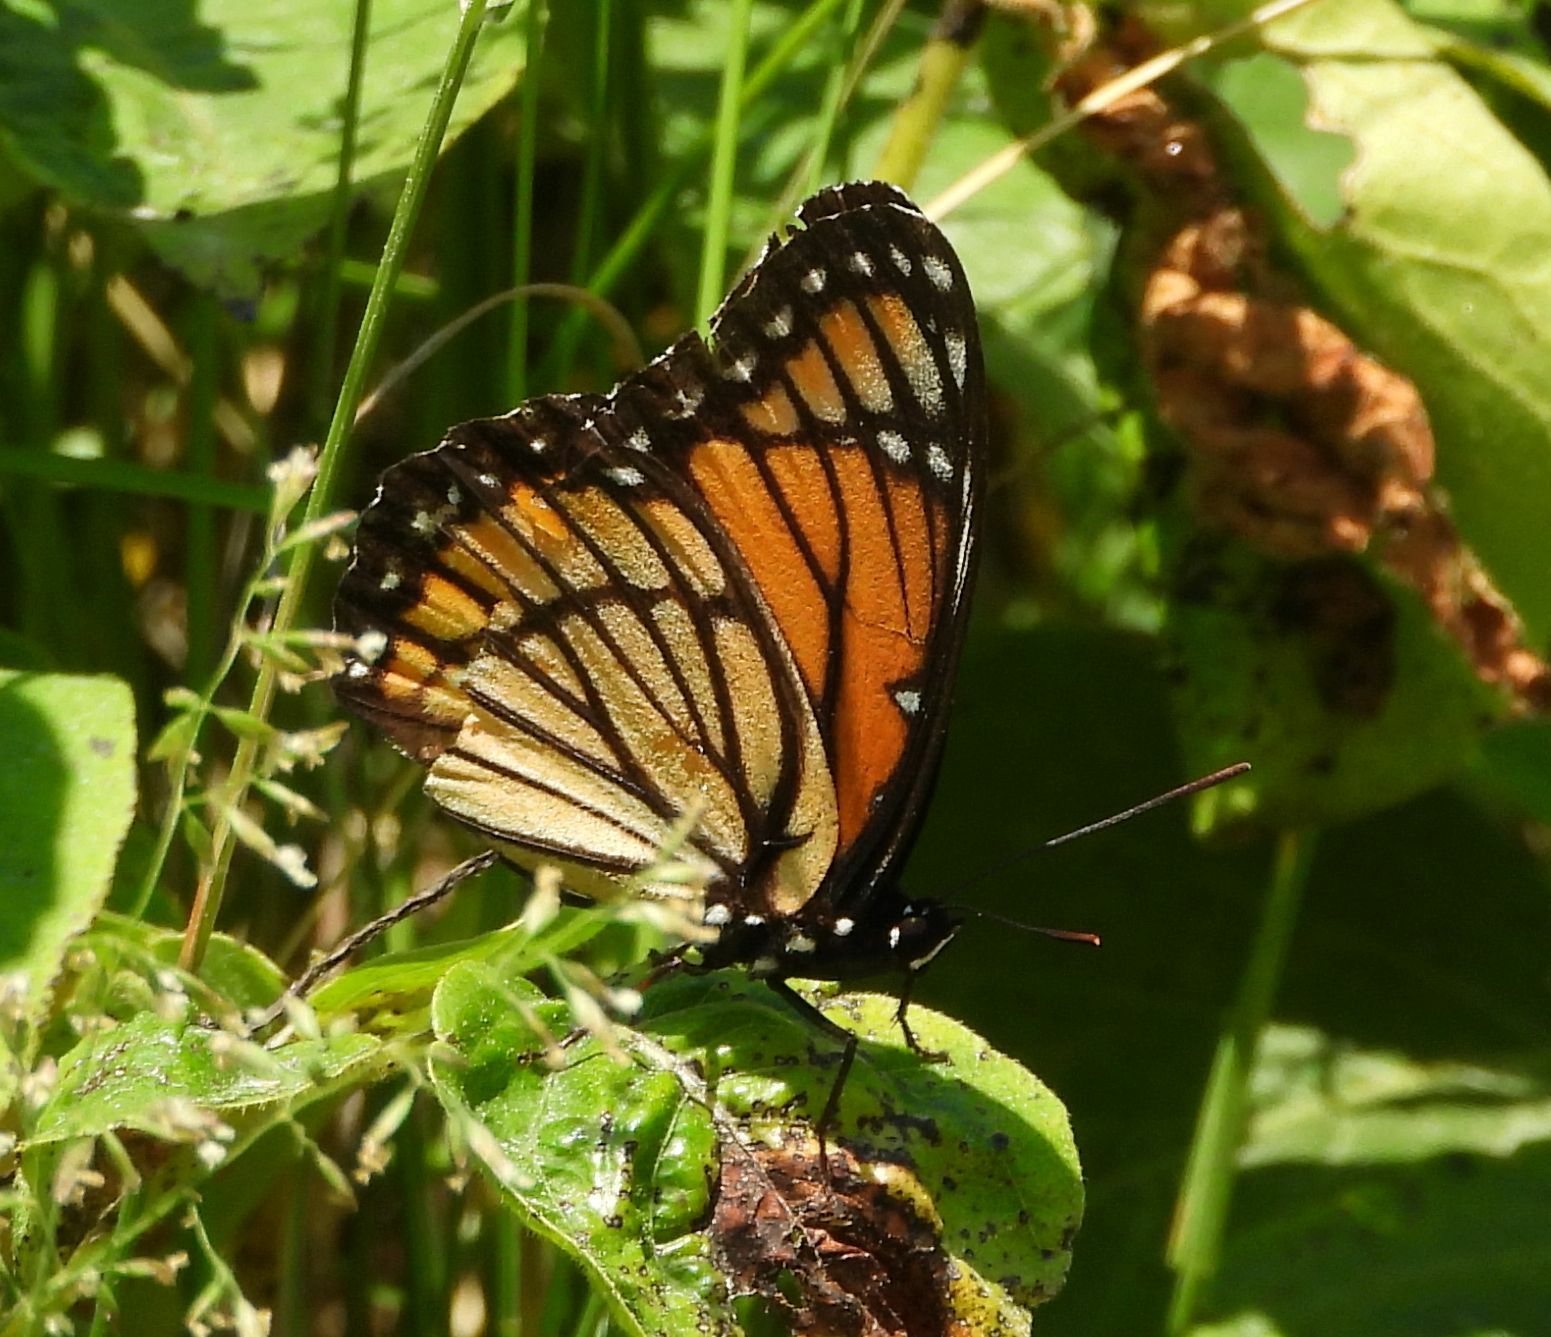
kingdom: Animalia
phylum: Arthropoda
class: Insecta
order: Lepidoptera
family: Nymphalidae
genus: Limenitis
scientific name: Limenitis archippus
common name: Viceroy
